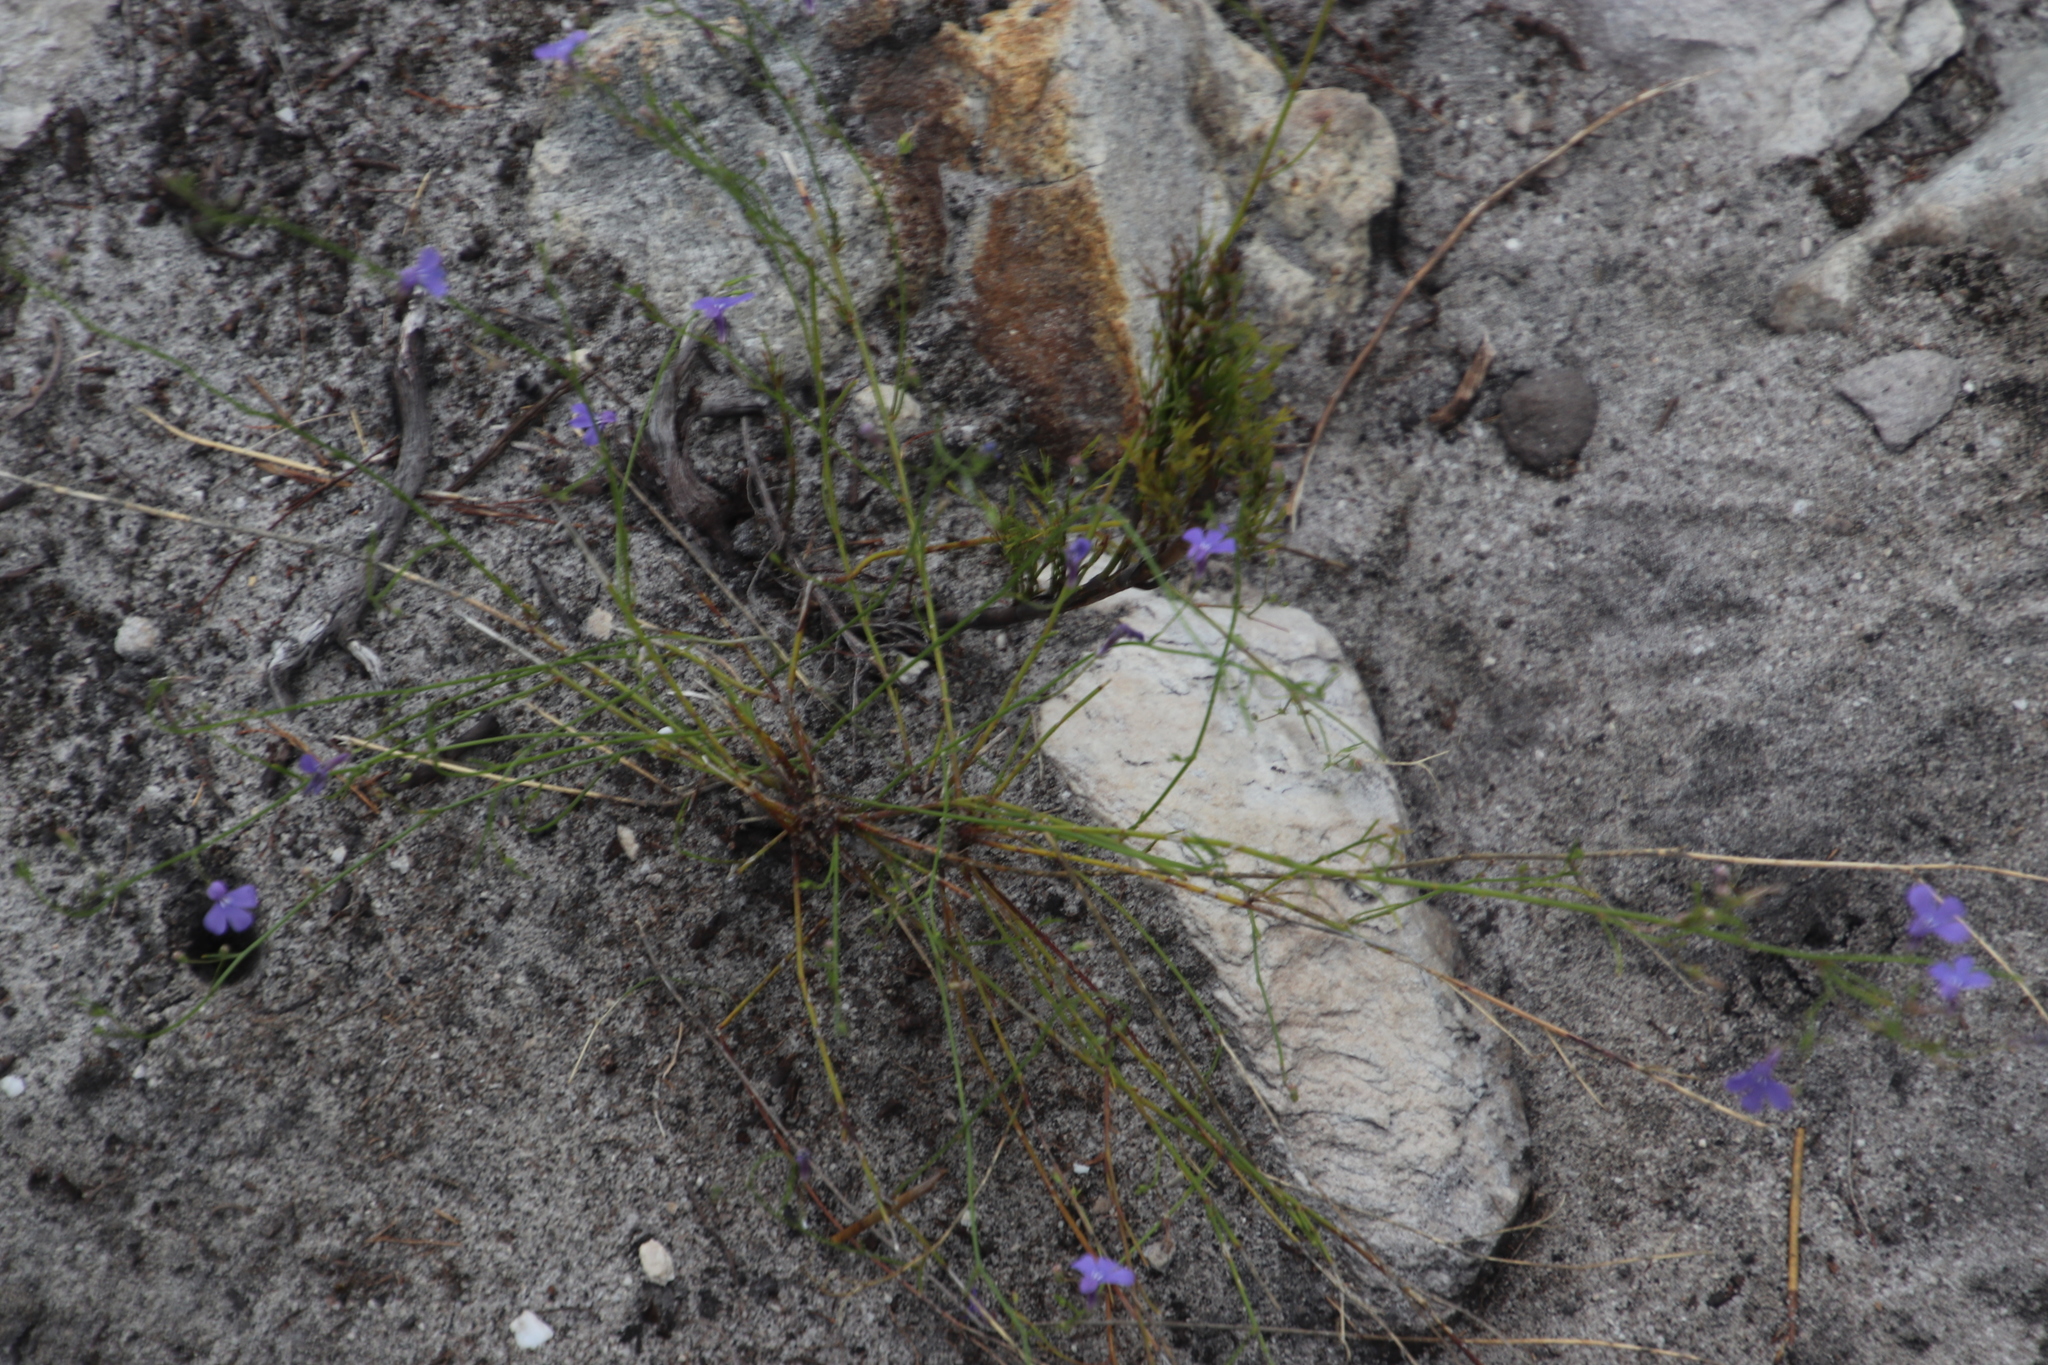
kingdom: Plantae
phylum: Tracheophyta
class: Magnoliopsida
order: Asterales
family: Campanulaceae
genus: Lobelia
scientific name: Lobelia setacea
